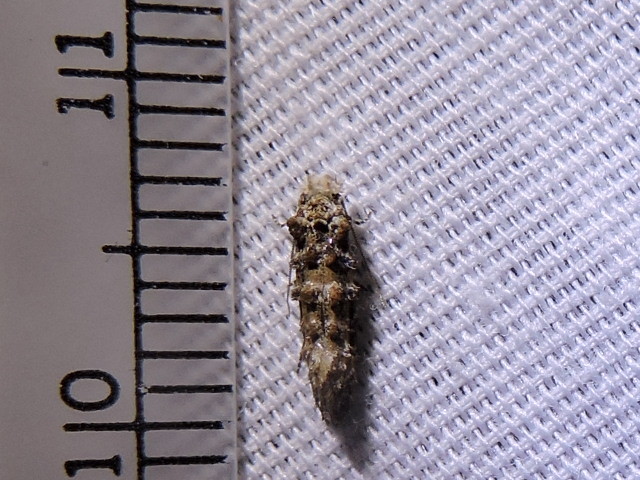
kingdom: Animalia
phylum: Arthropoda
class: Insecta
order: Lepidoptera
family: Tineidae
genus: Xylesthia
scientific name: Xylesthia pruniramiella
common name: Clemens' bark moth
